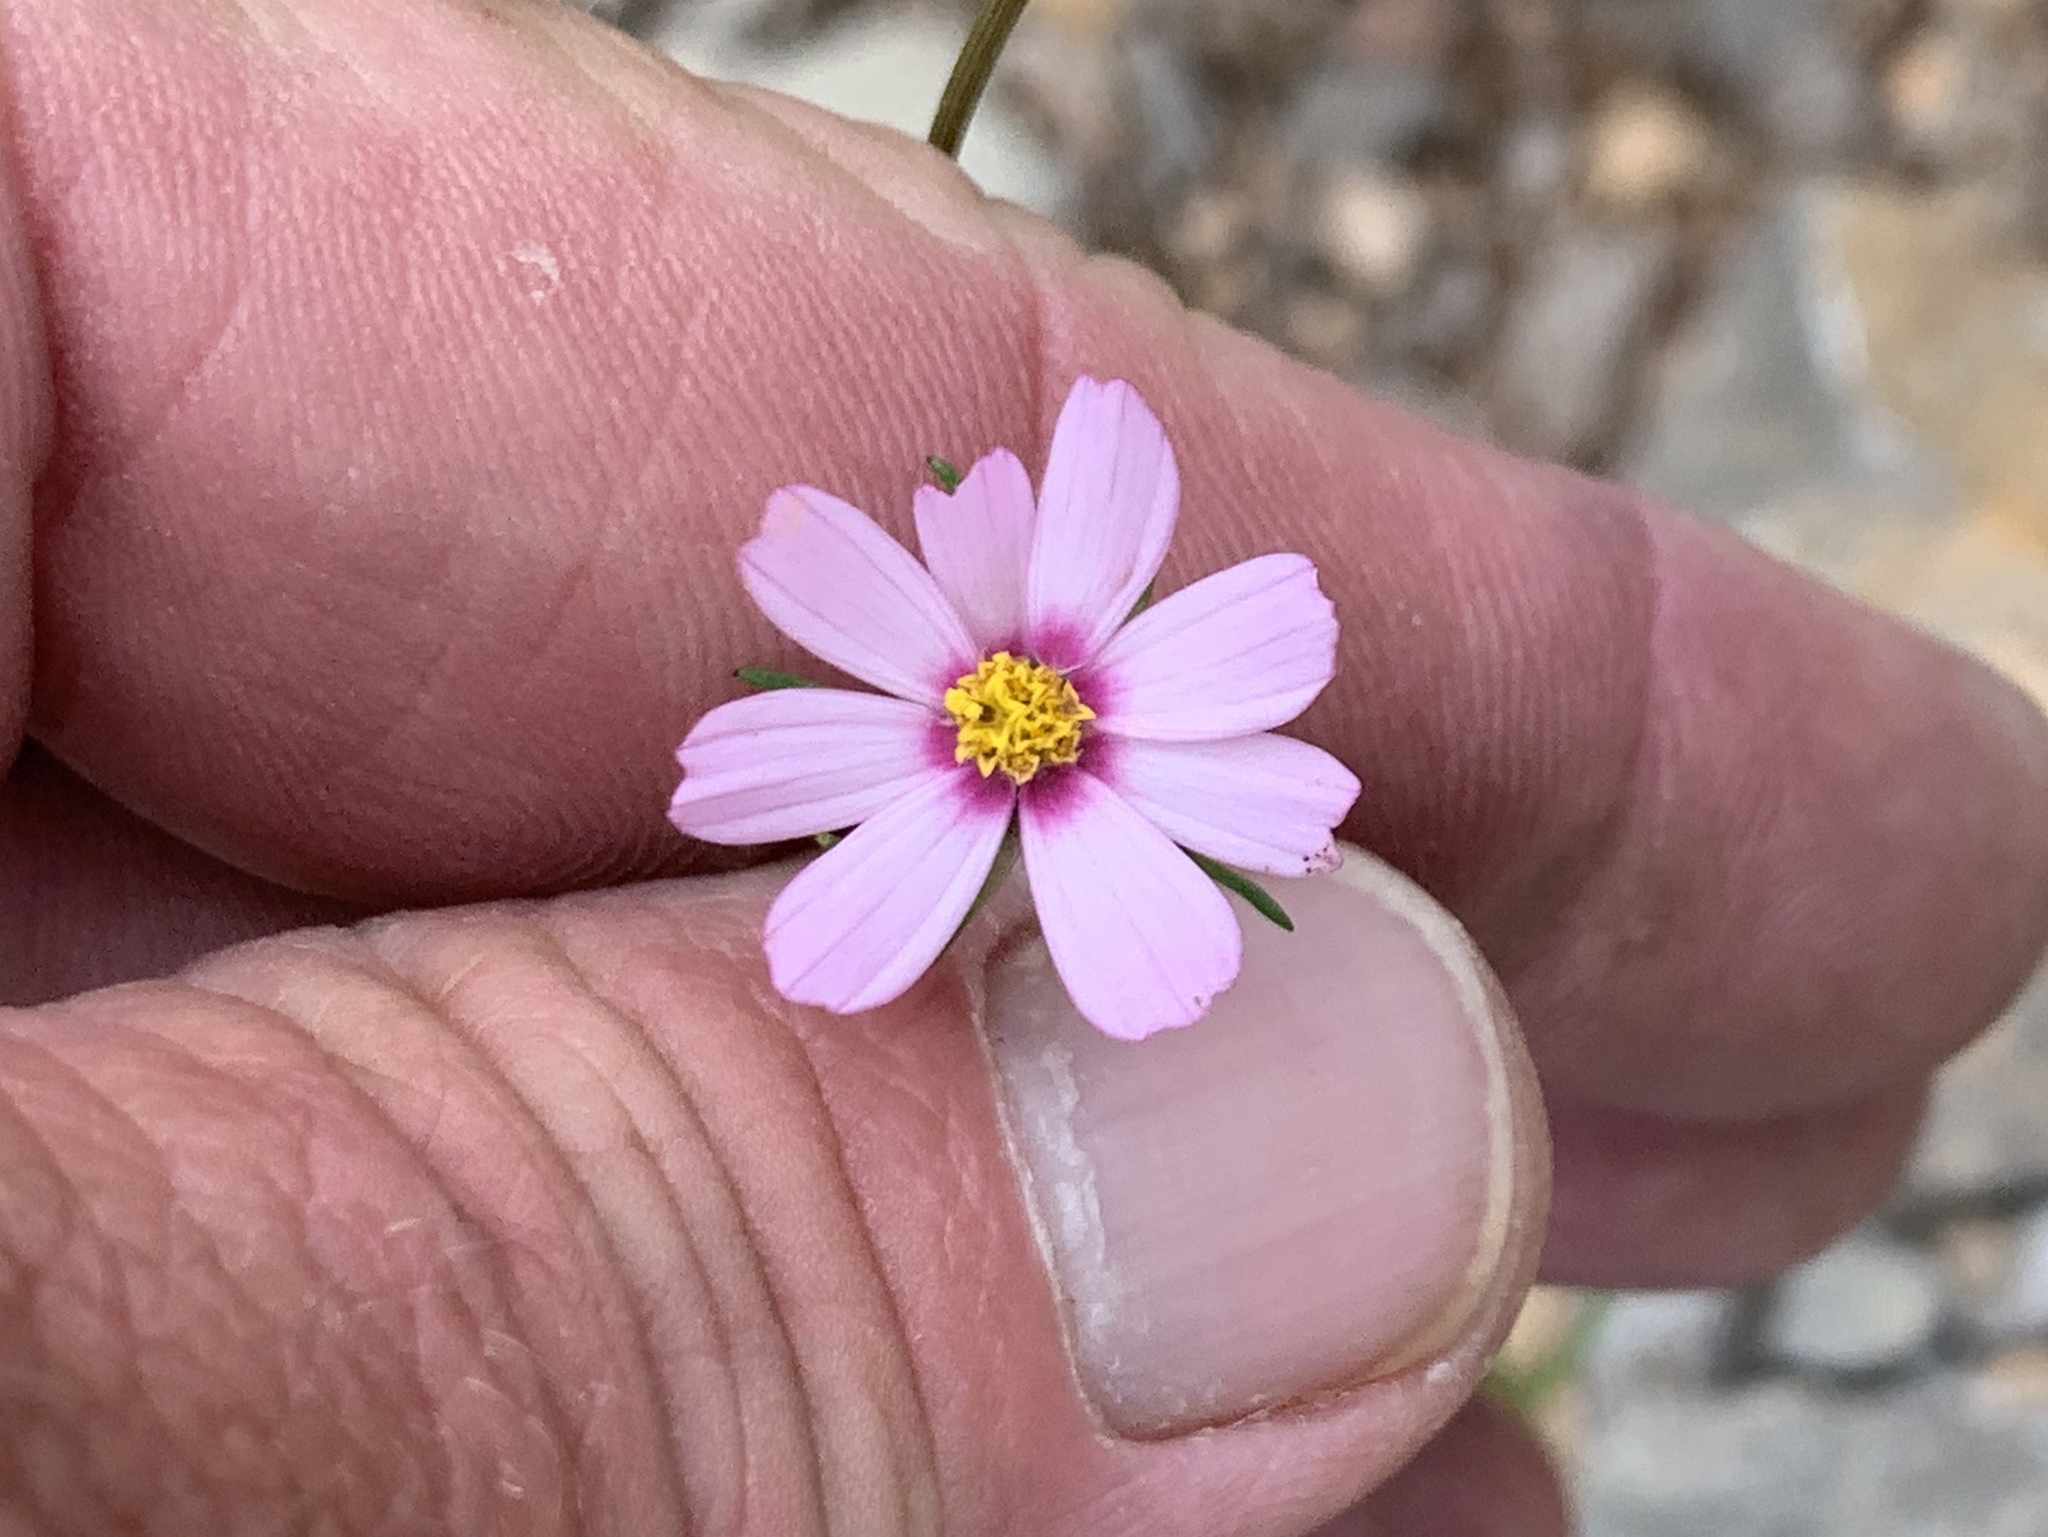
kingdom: Plantae
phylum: Tracheophyta
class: Magnoliopsida
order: Asterales
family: Asteraceae
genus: Cosmos
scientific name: Cosmos parviflorus
